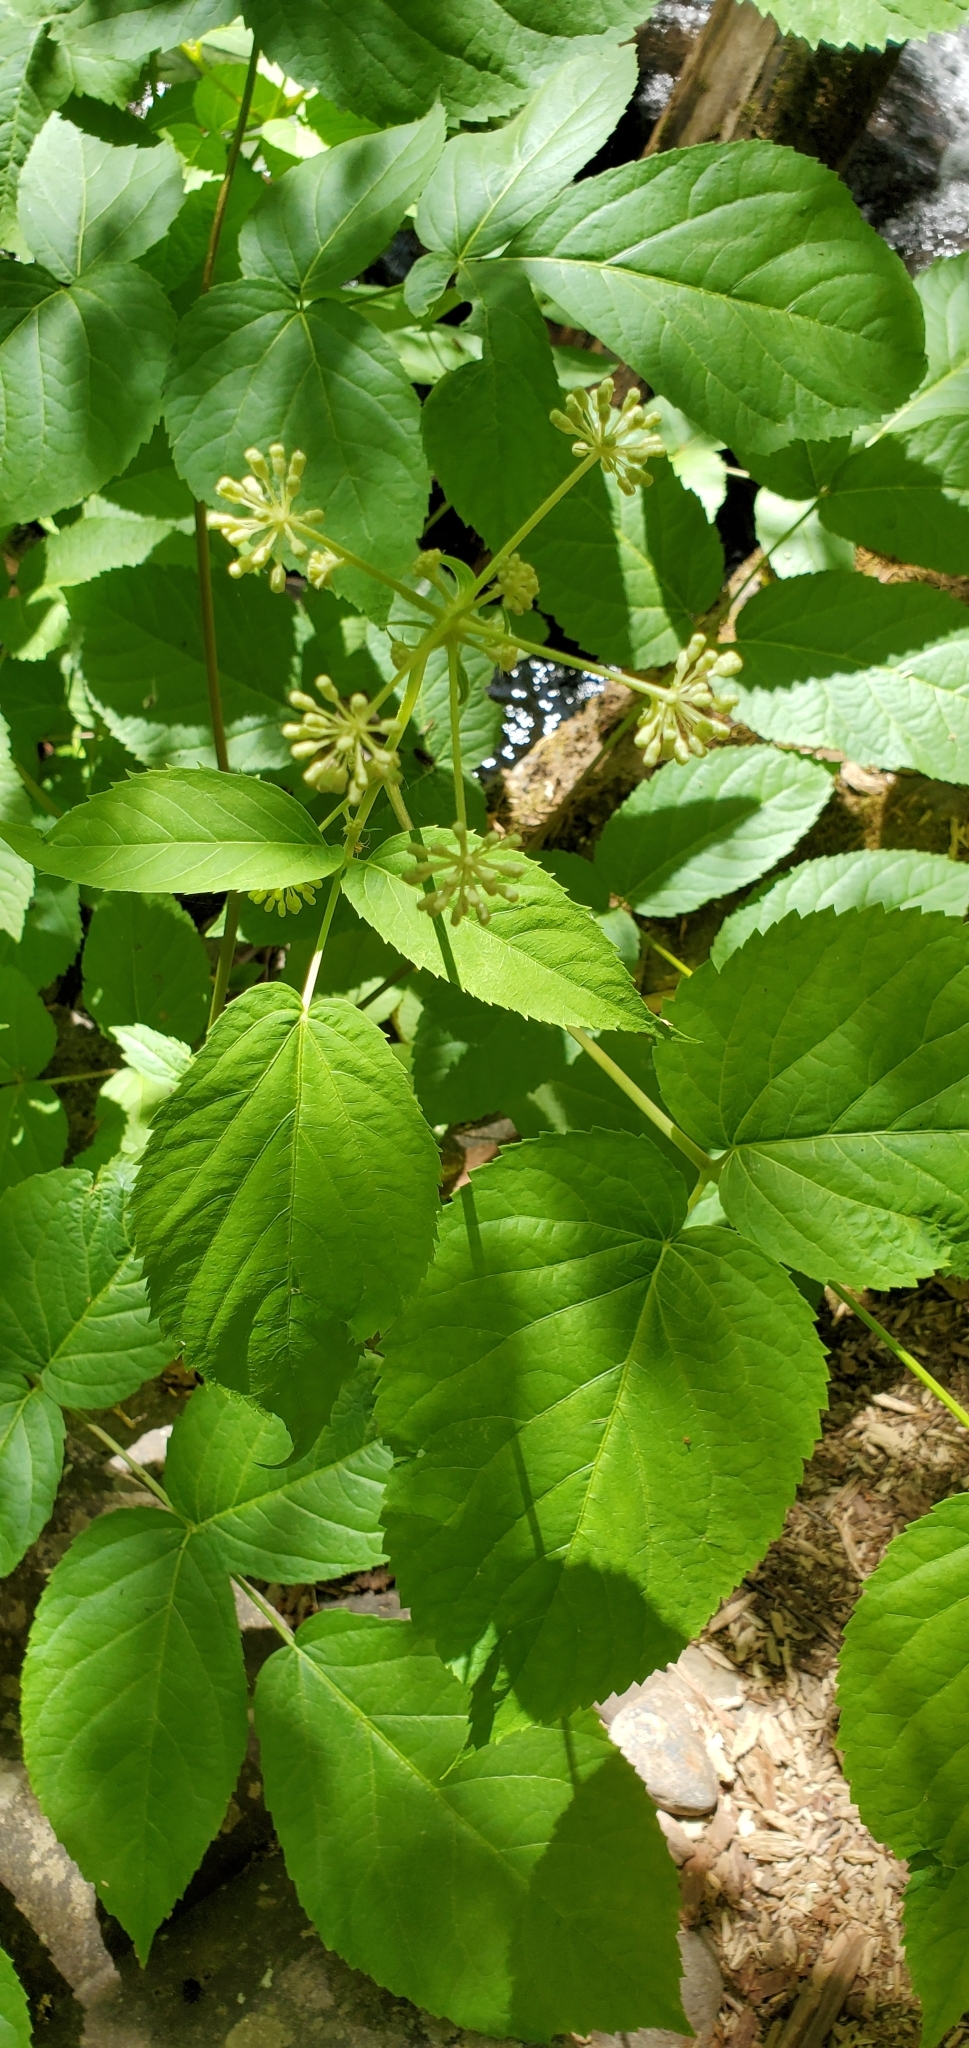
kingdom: Plantae
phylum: Tracheophyta
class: Magnoliopsida
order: Apiales
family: Araliaceae
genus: Aralia
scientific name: Aralia californica
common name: California-ginseng
